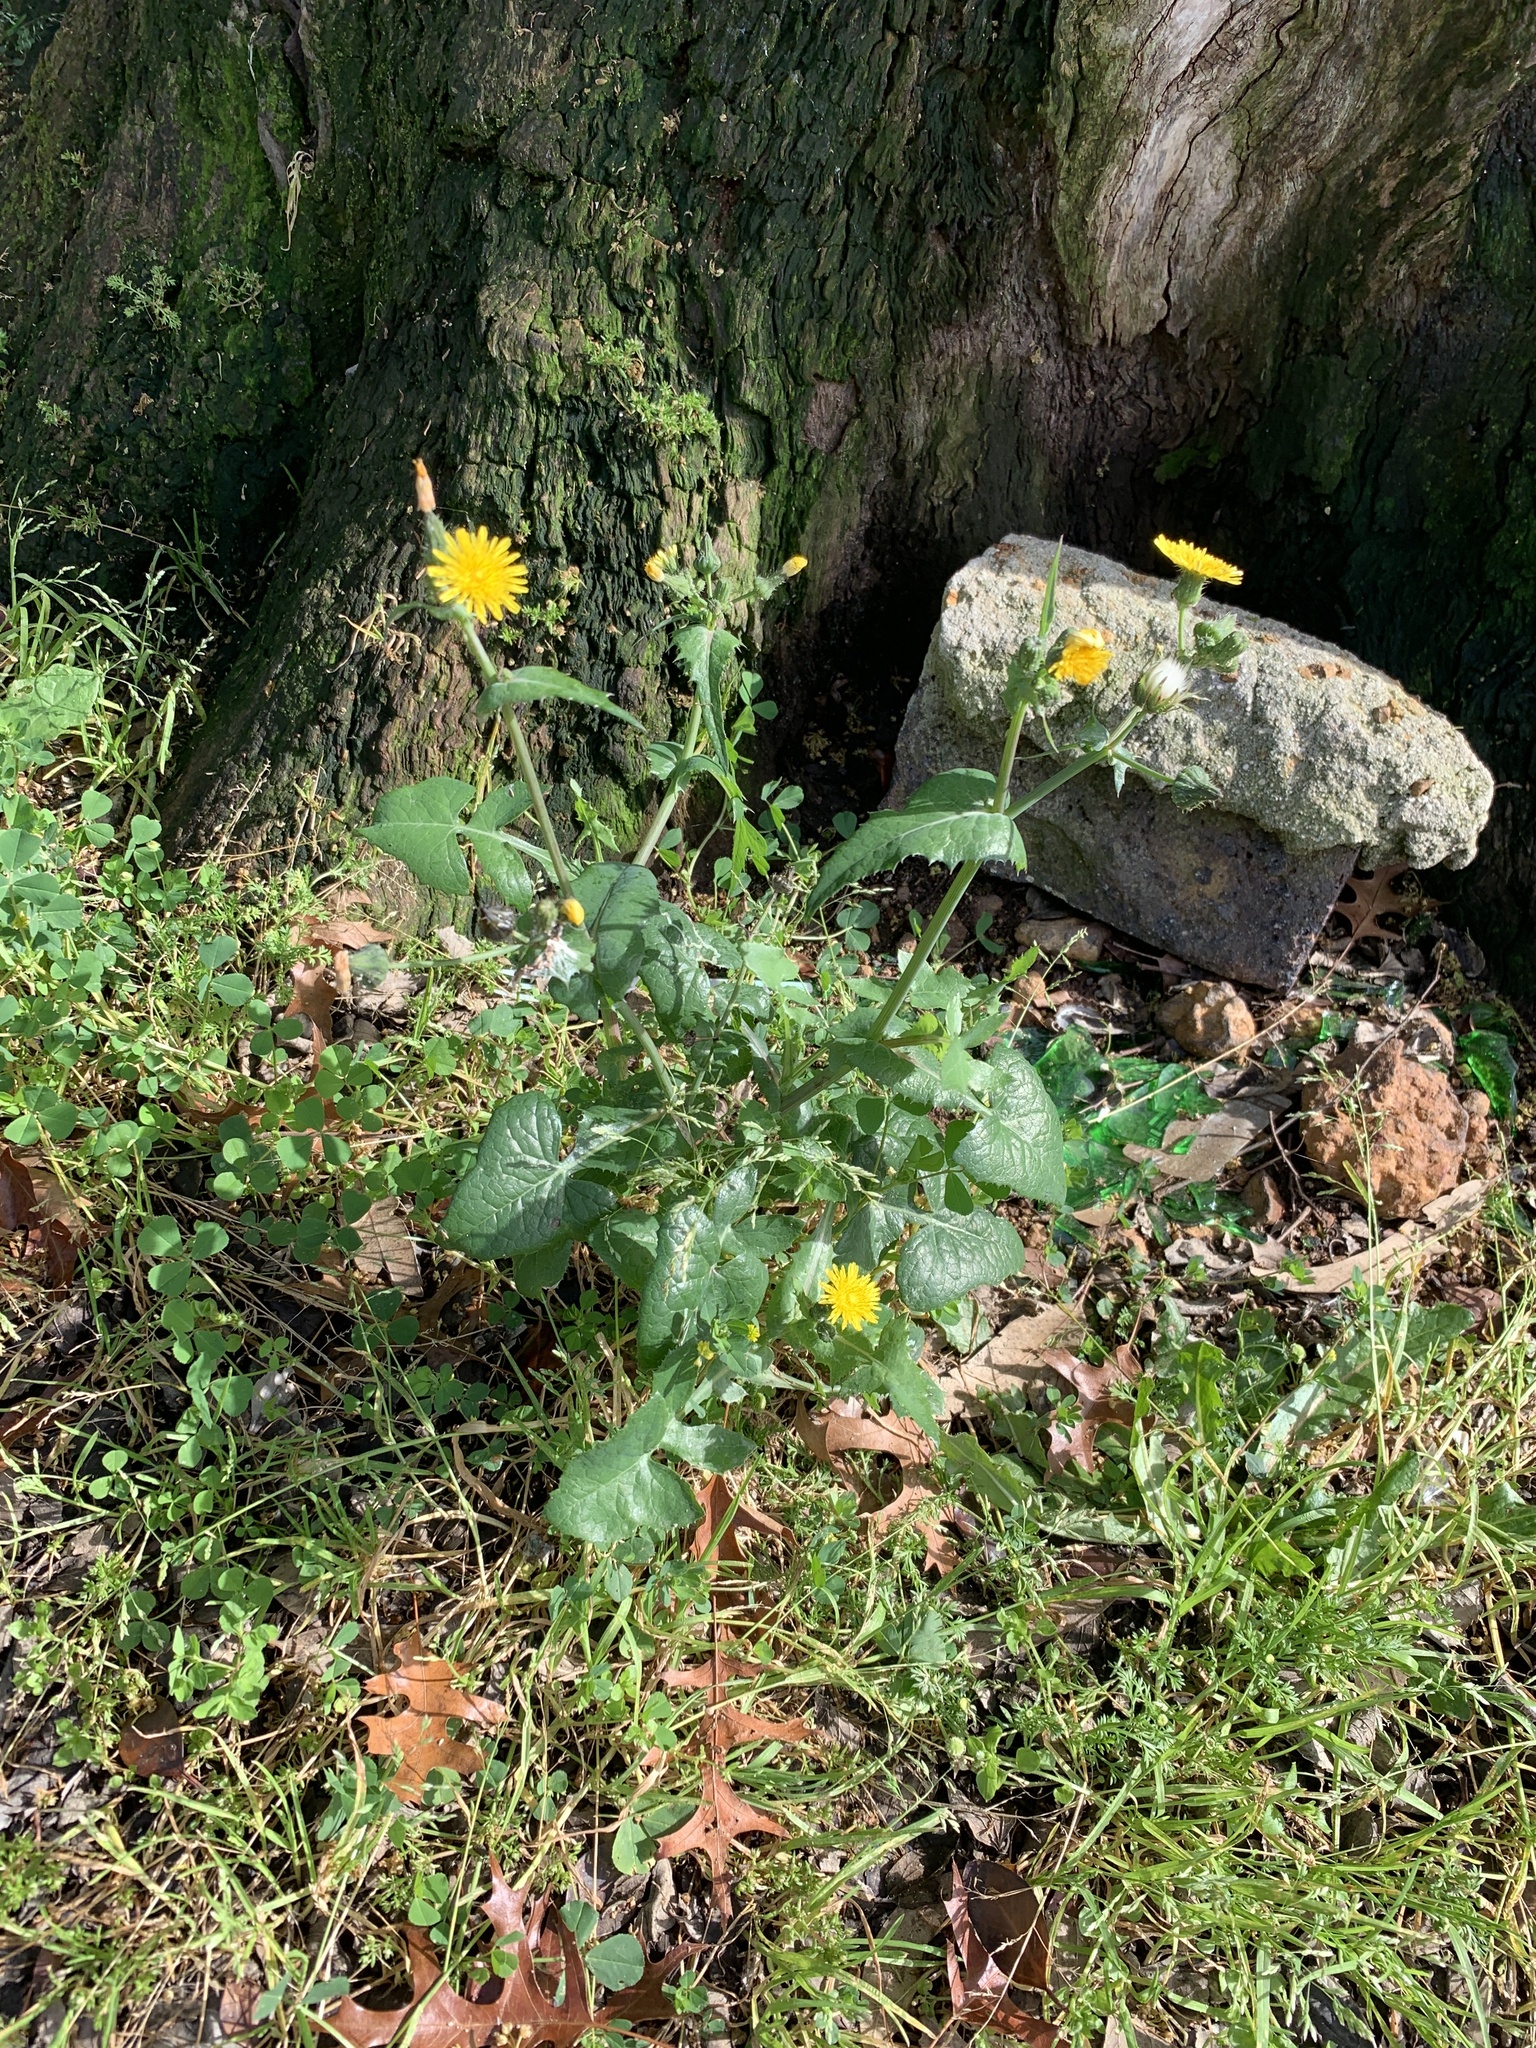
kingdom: Plantae
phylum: Tracheophyta
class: Magnoliopsida
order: Asterales
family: Asteraceae
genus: Sonchus
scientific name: Sonchus oleraceus
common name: Common sowthistle
